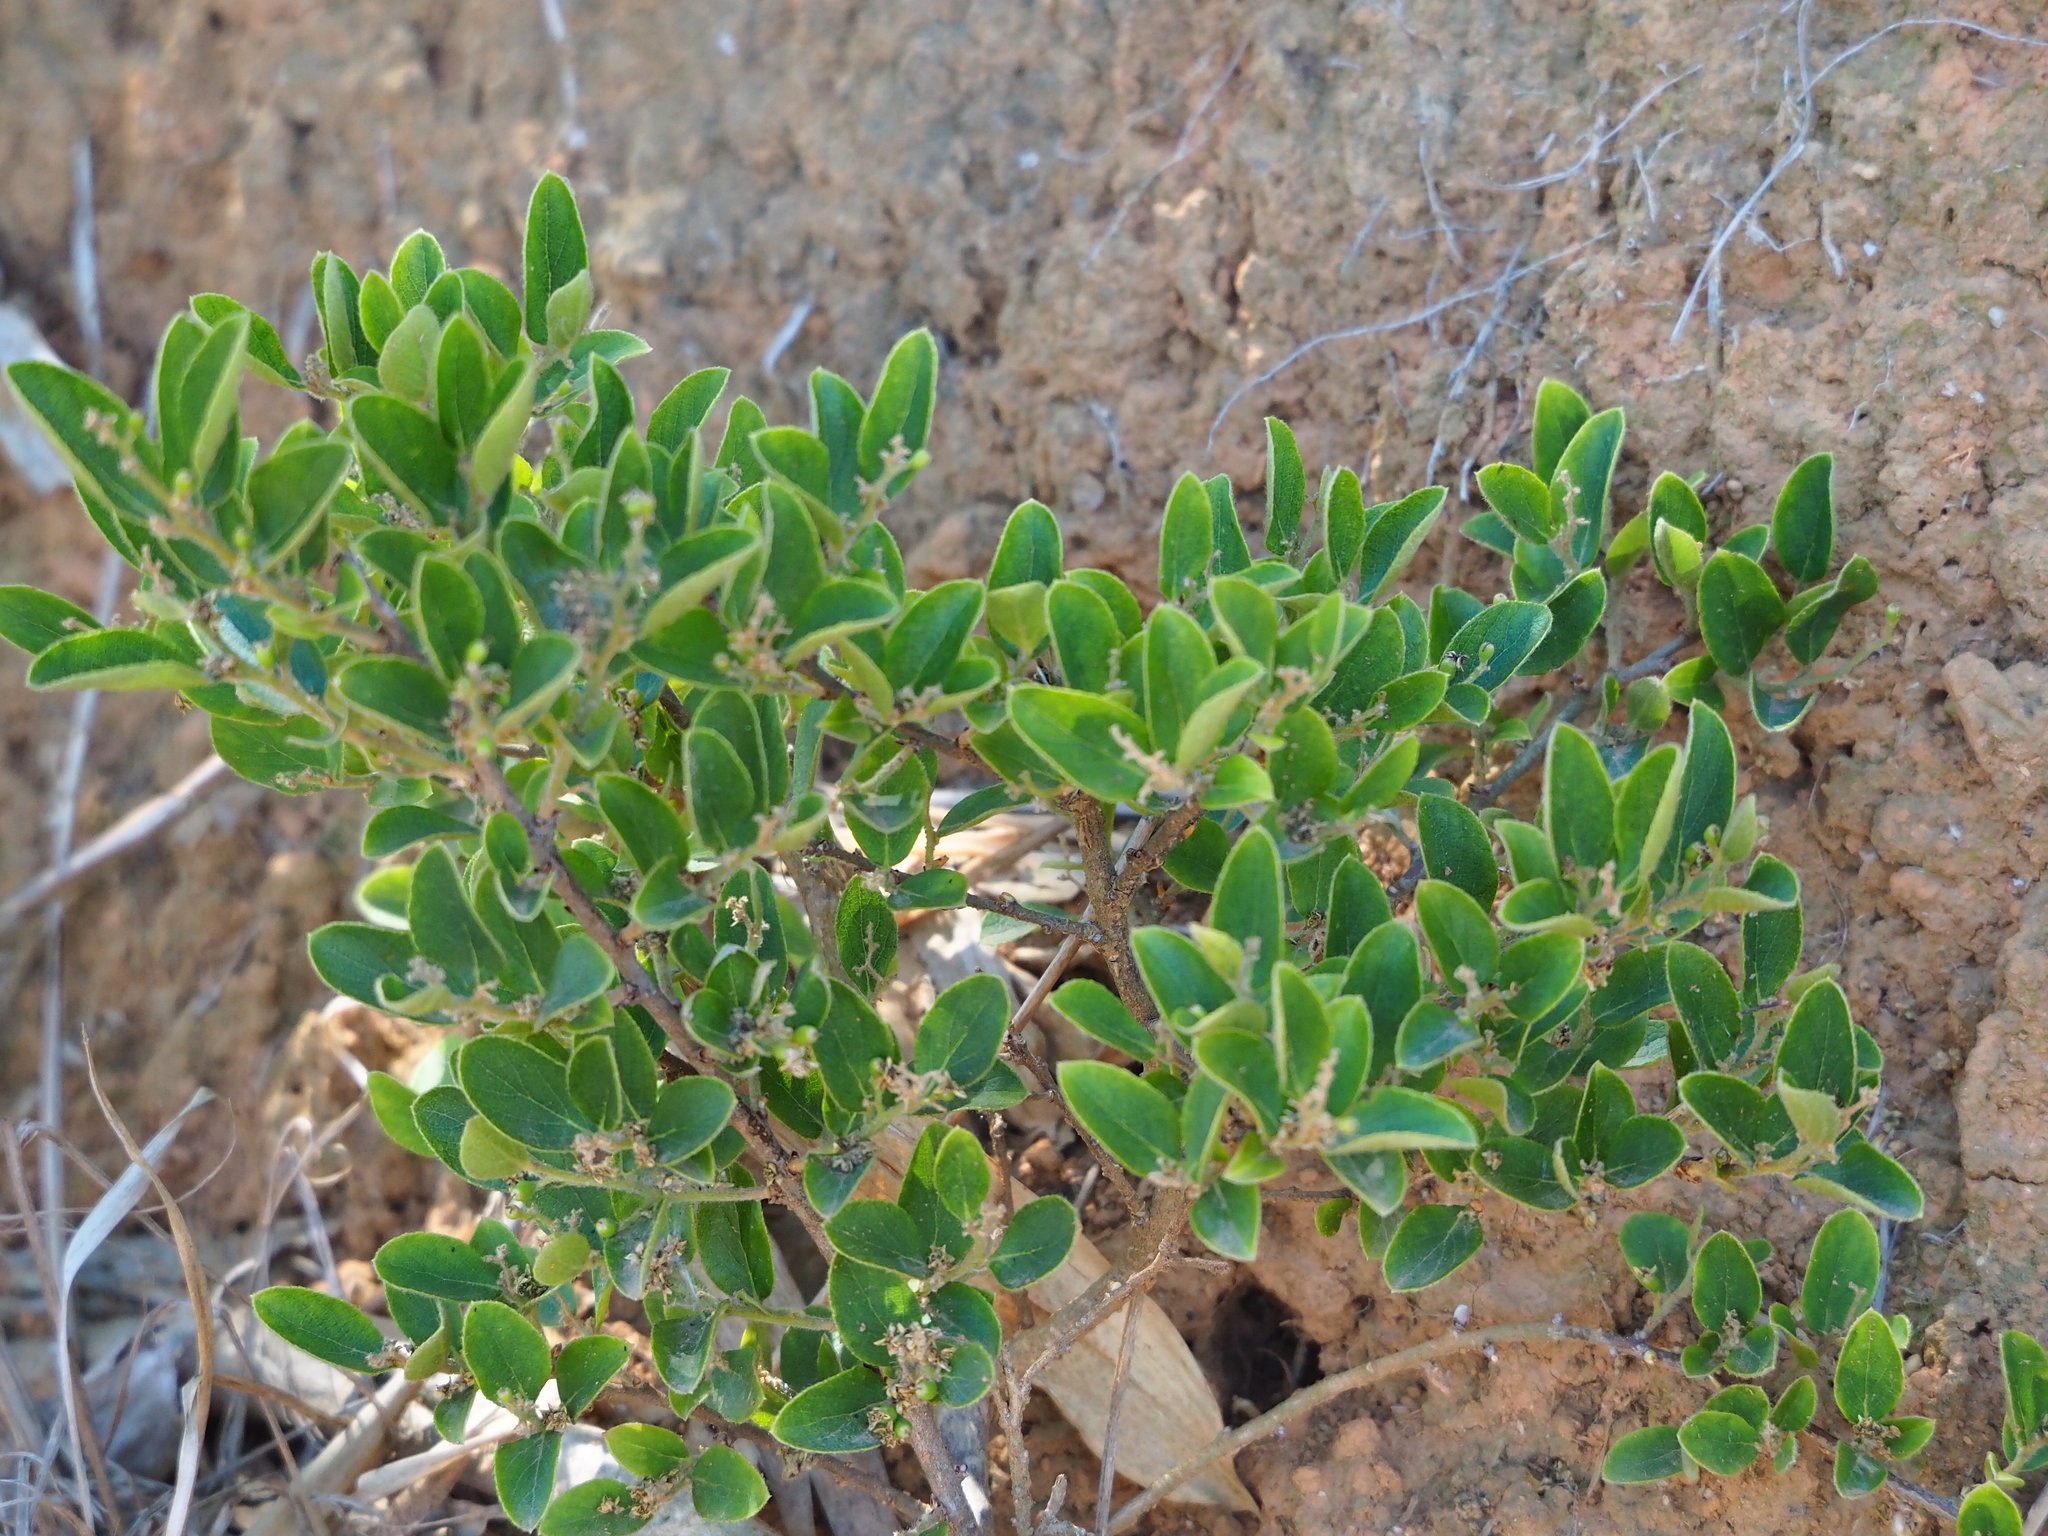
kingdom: Plantae
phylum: Tracheophyta
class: Magnoliopsida
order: Ericales
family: Symplocaceae
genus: Symplocos
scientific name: Symplocos paniculata
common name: Sapphire-berry
